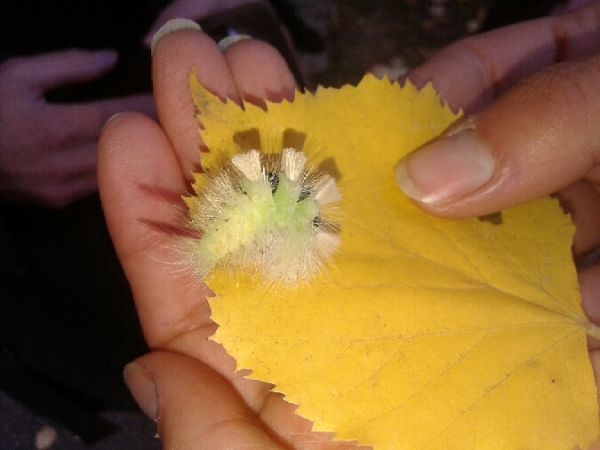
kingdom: Animalia
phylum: Arthropoda
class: Insecta
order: Lepidoptera
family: Erebidae
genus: Calliteara
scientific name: Calliteara pudibunda
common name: Pale tussock
